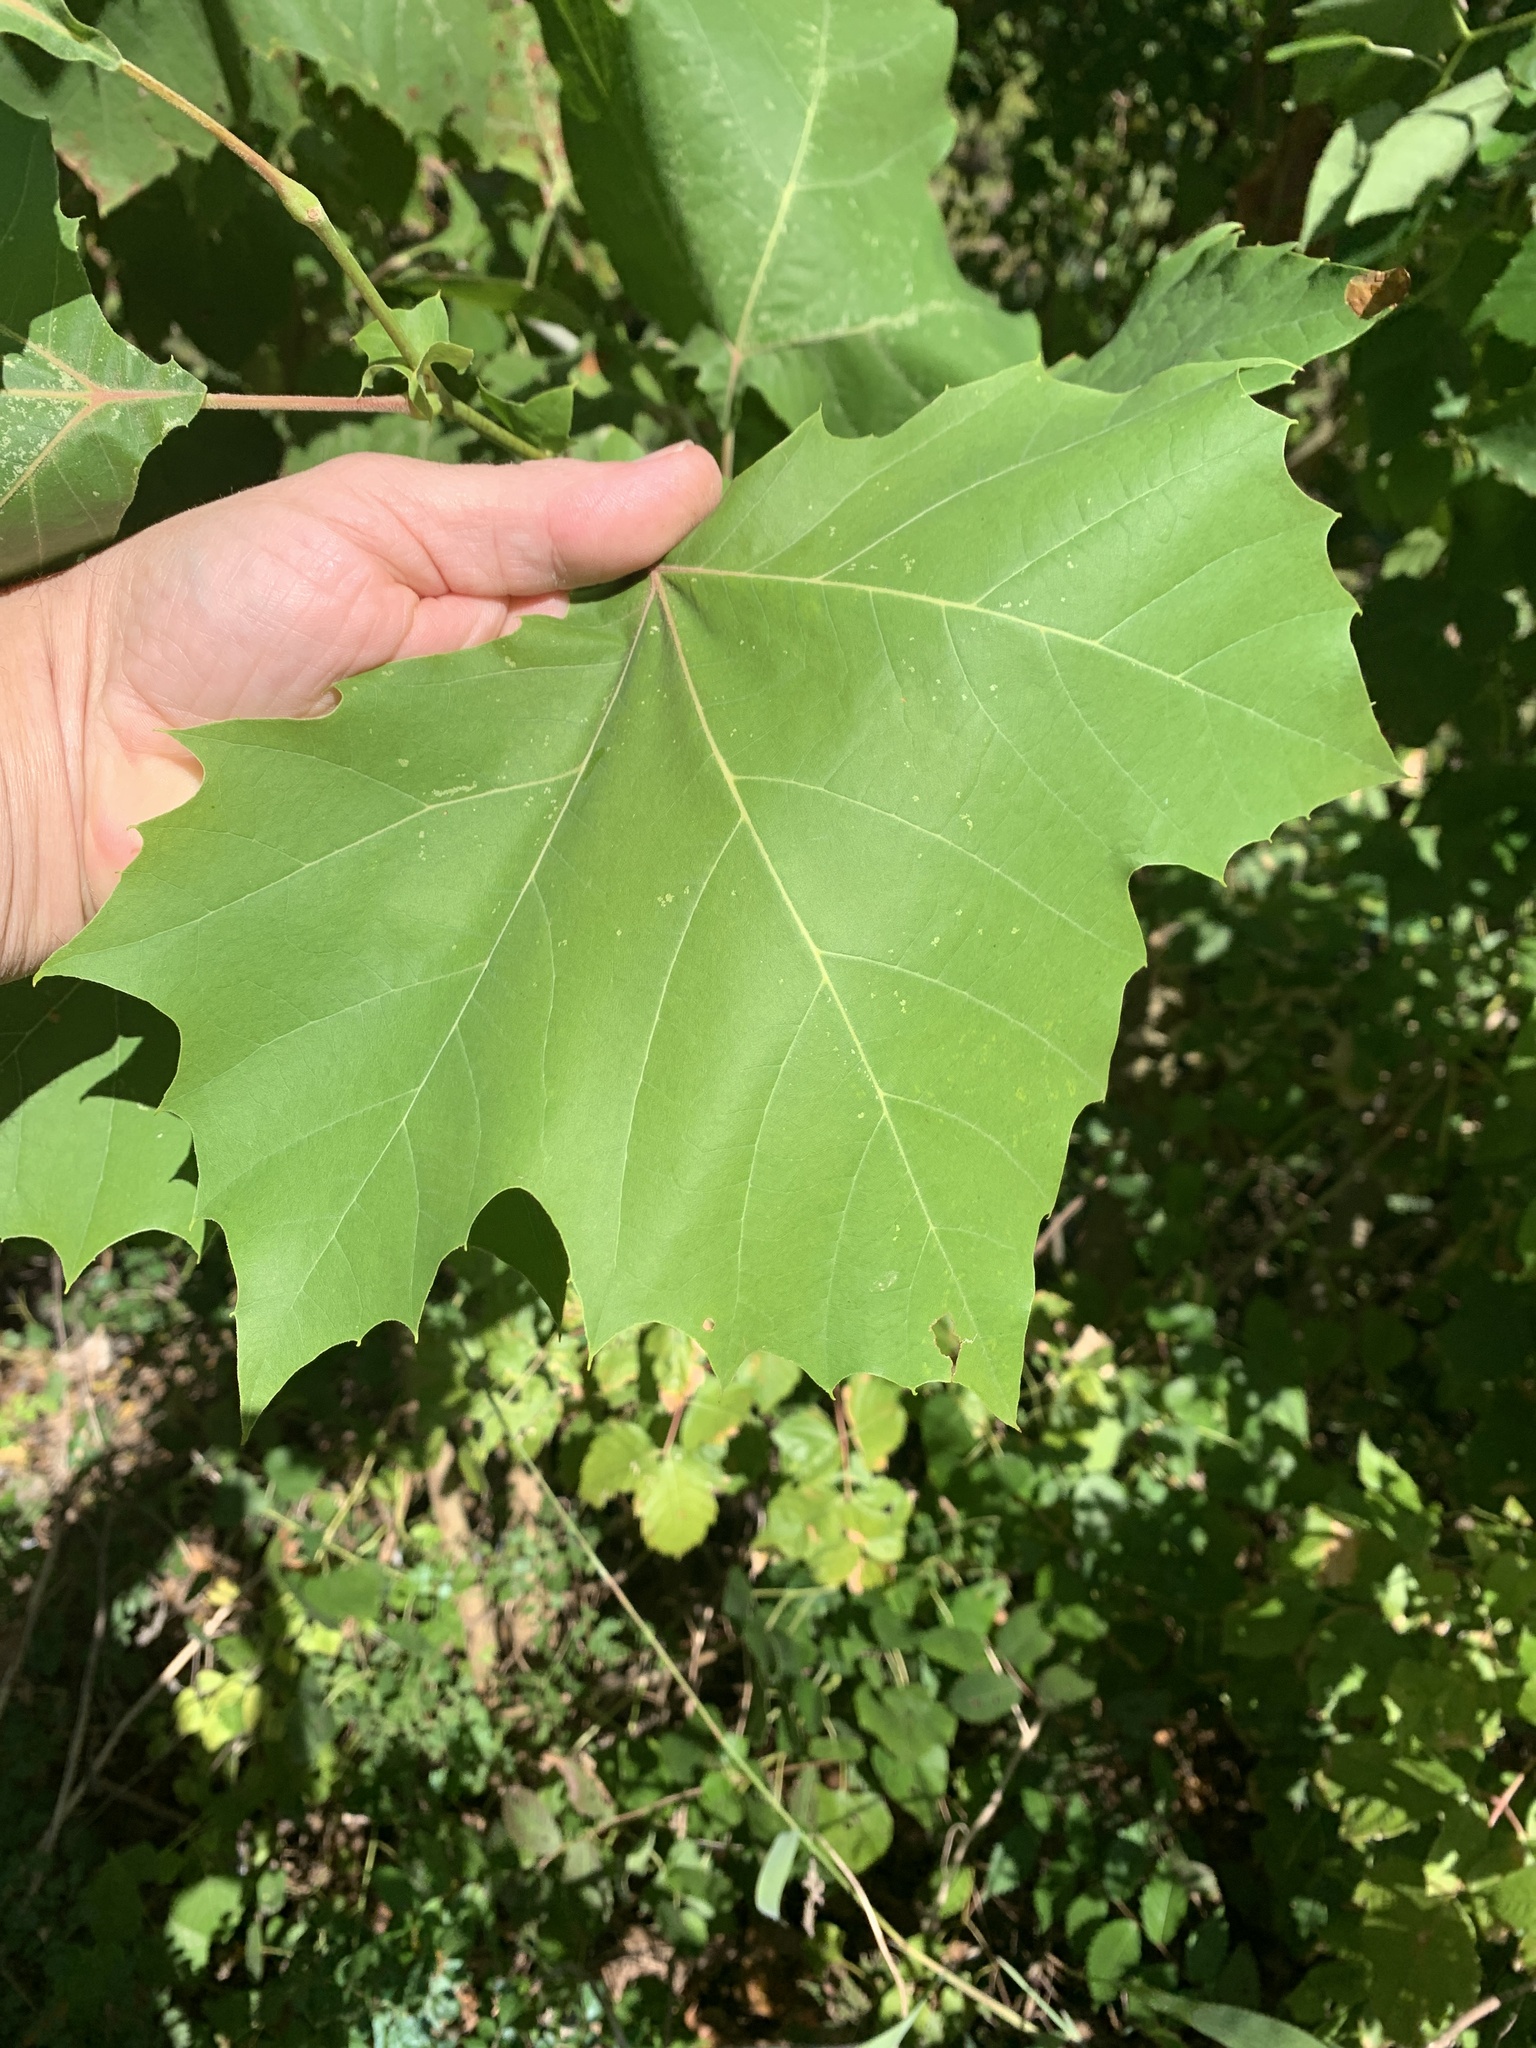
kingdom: Plantae
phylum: Tracheophyta
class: Magnoliopsida
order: Proteales
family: Platanaceae
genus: Platanus
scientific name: Platanus occidentalis
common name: American sycamore
